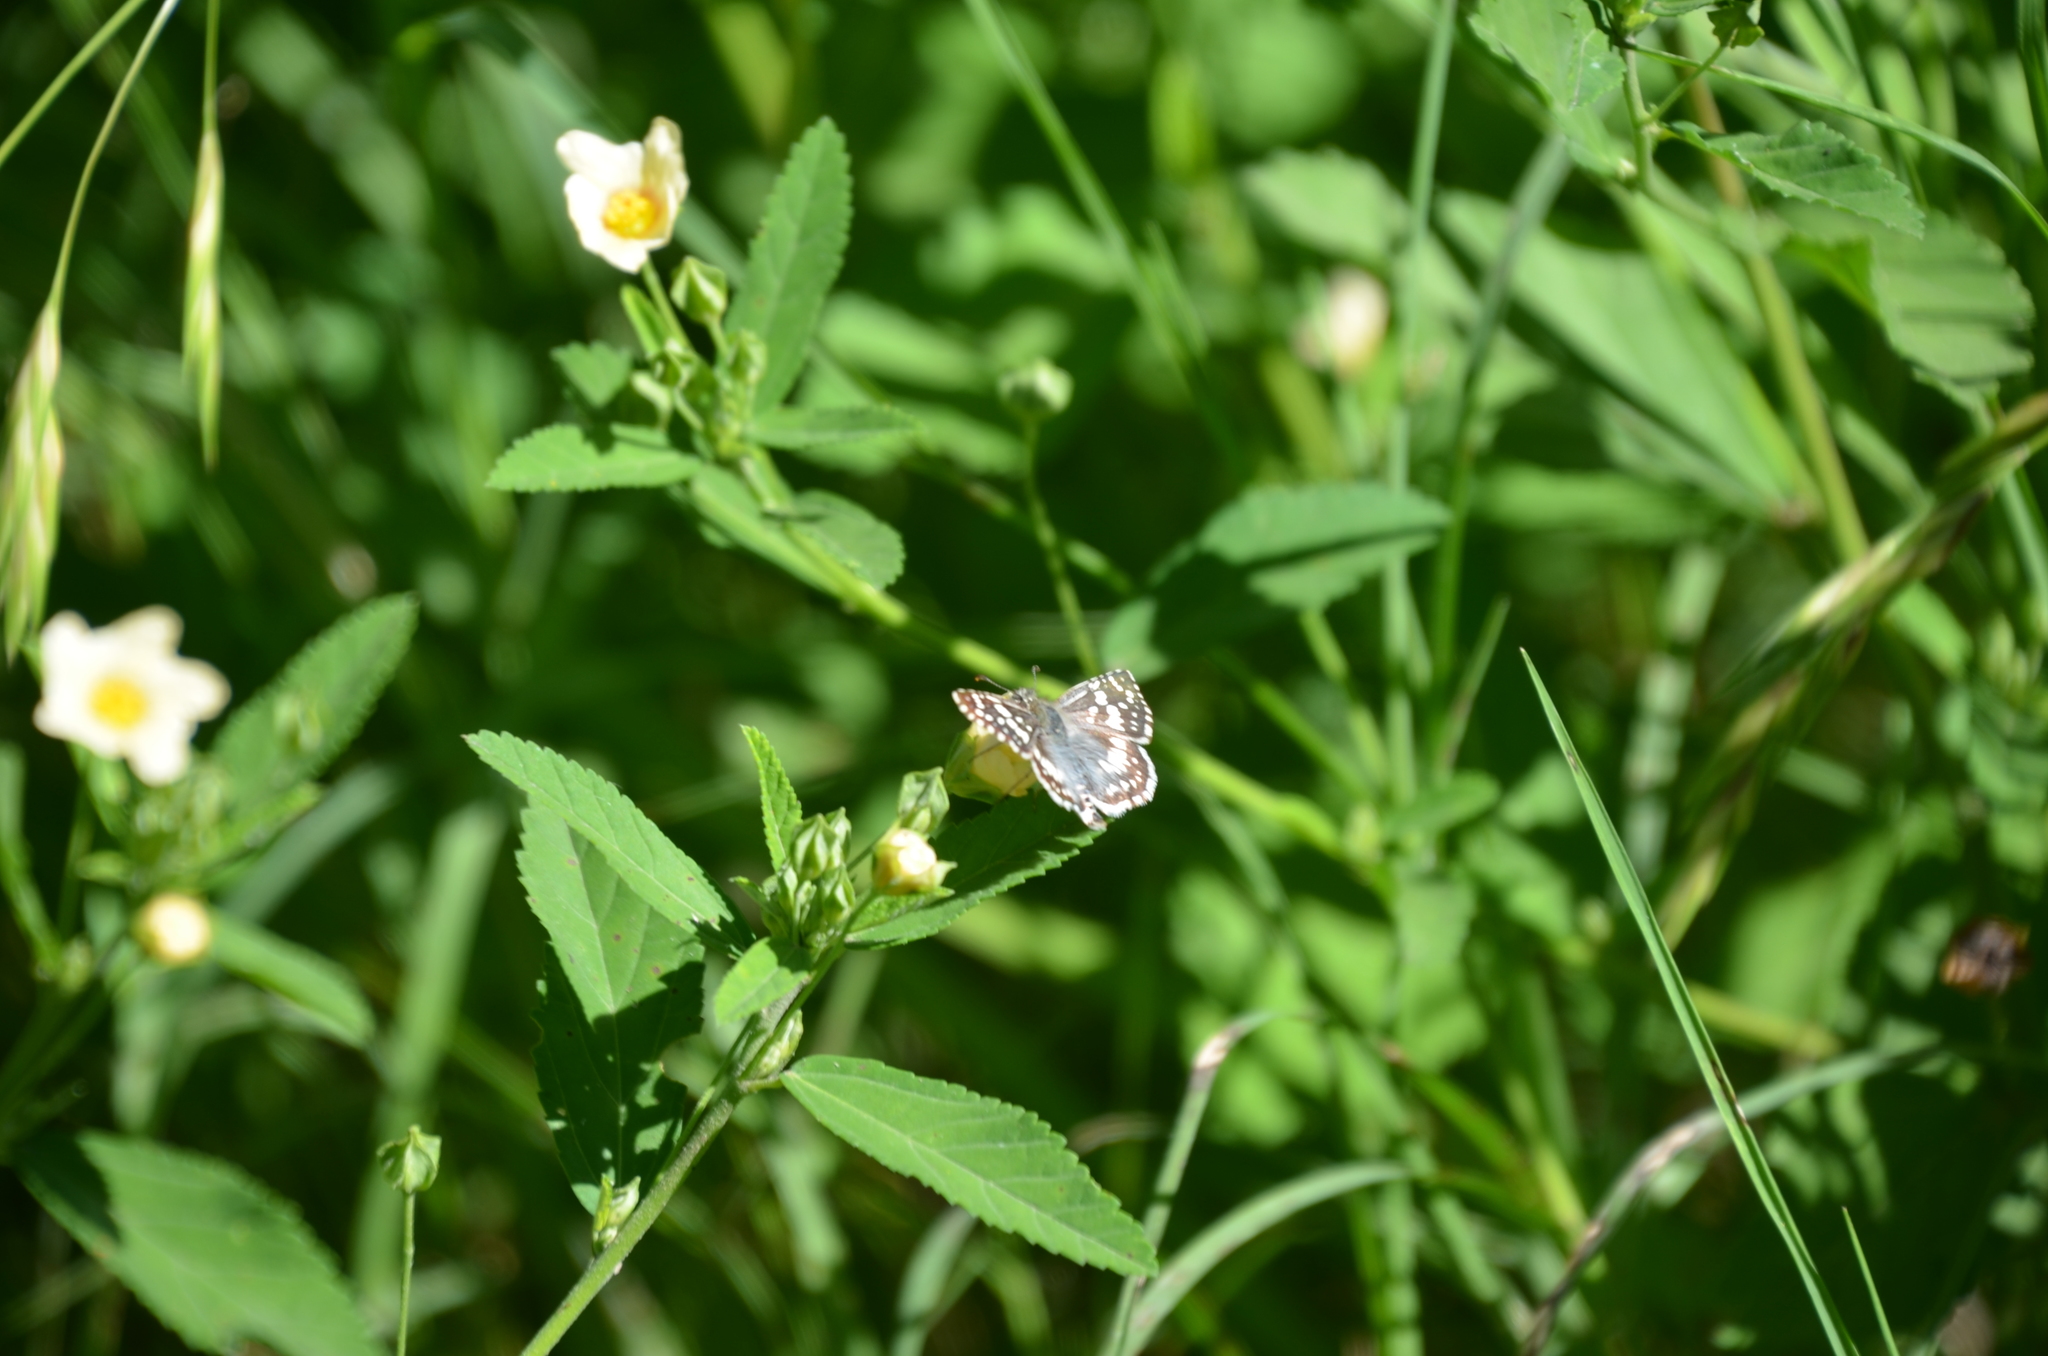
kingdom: Animalia
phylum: Arthropoda
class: Insecta
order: Lepidoptera
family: Hesperiidae
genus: Burnsius
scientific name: Burnsius orcynoides
